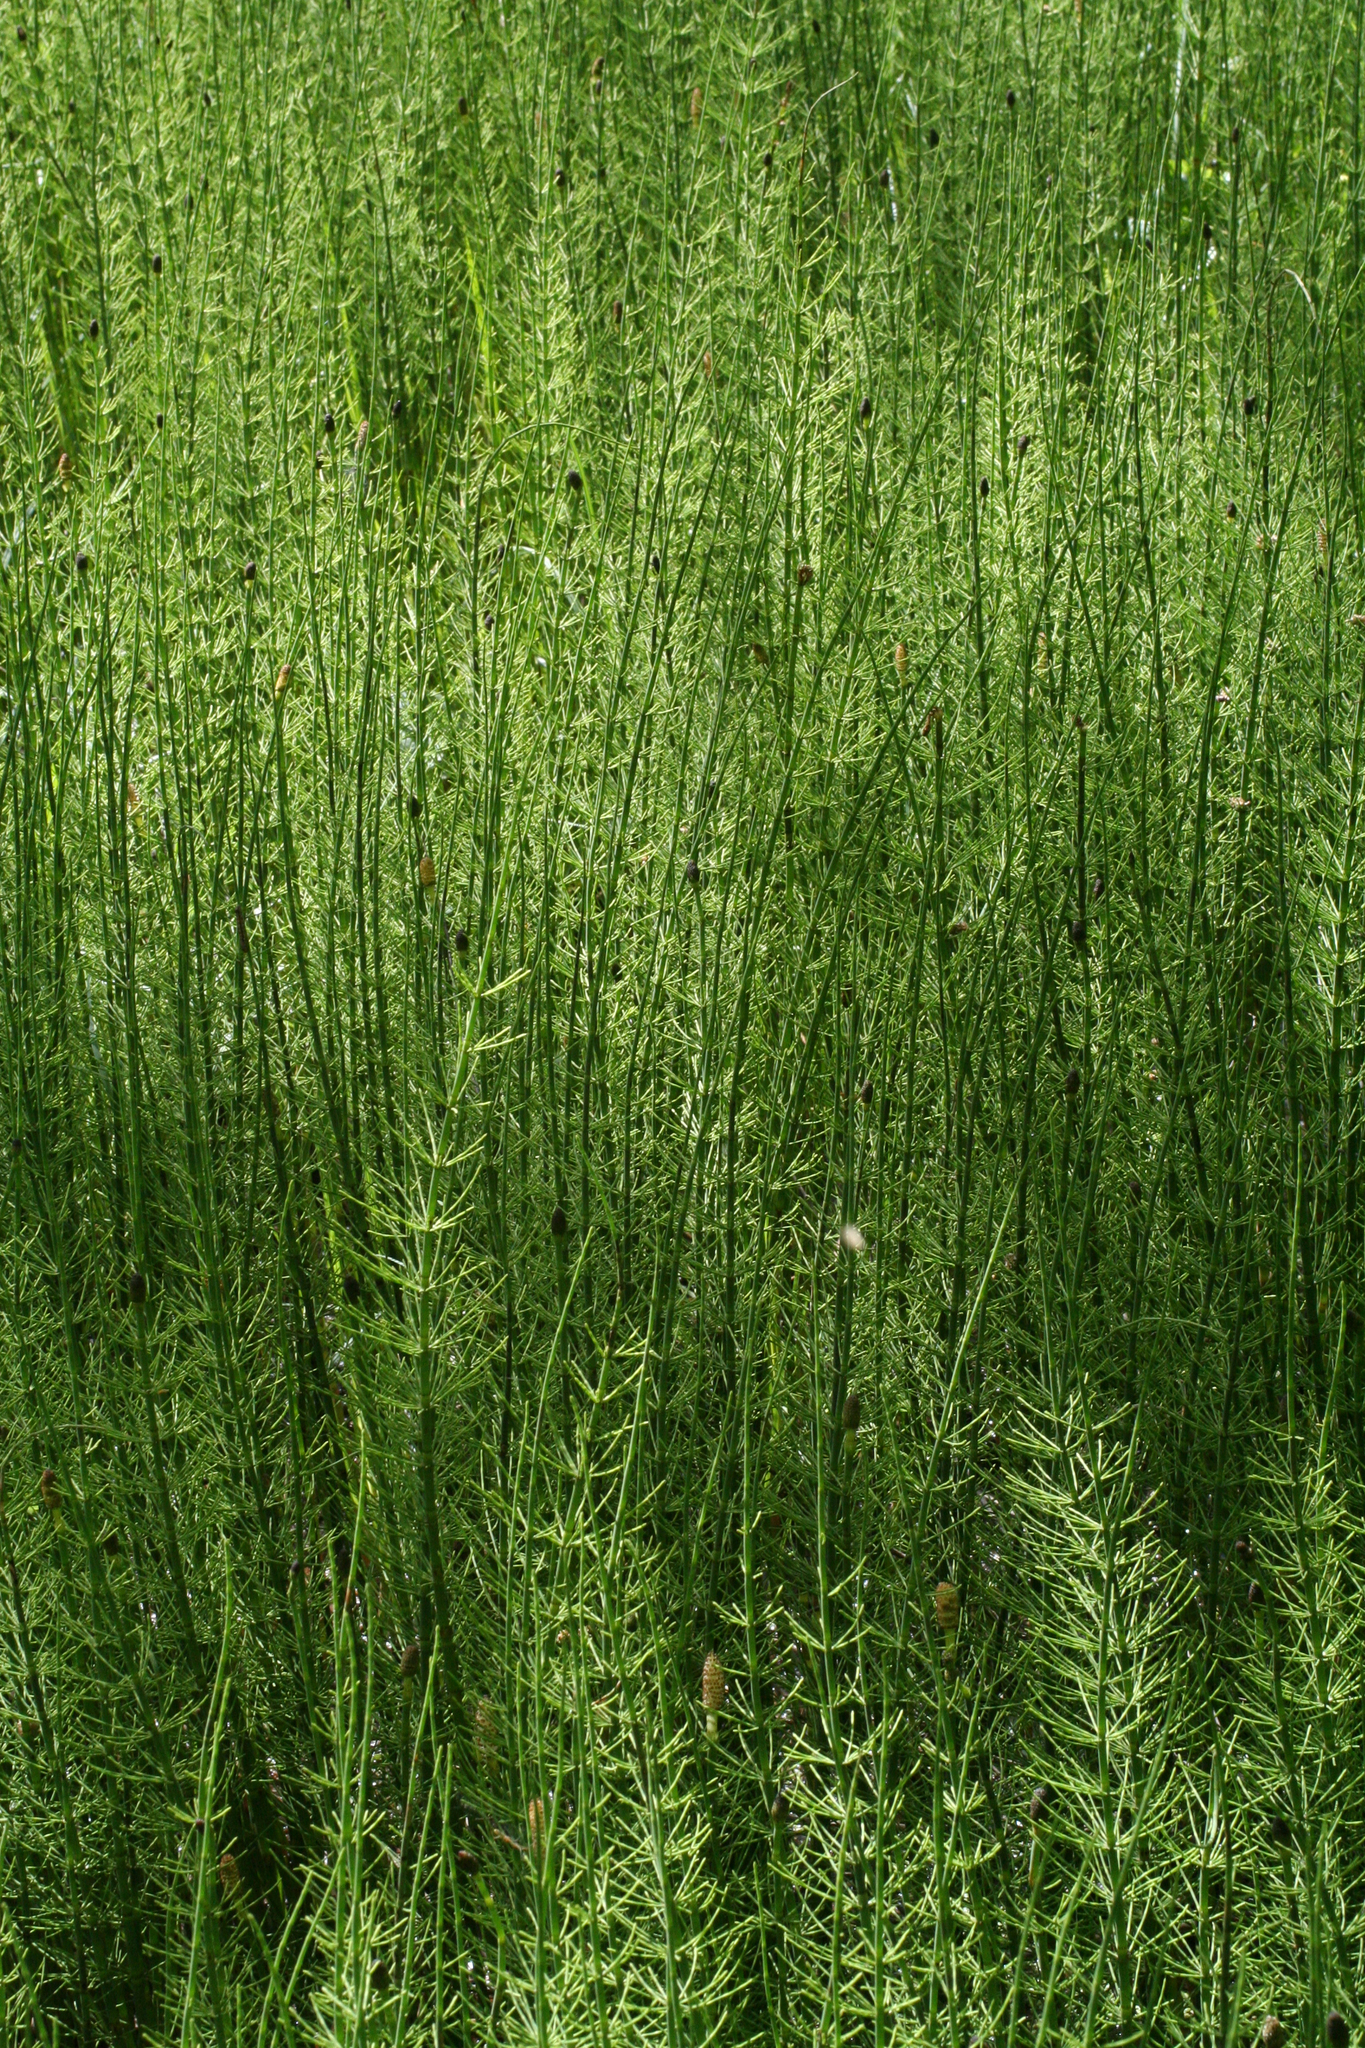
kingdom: Plantae
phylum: Tracheophyta
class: Polypodiopsida
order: Equisetales
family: Equisetaceae
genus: Equisetum
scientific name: Equisetum fluviatile
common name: Water horsetail
